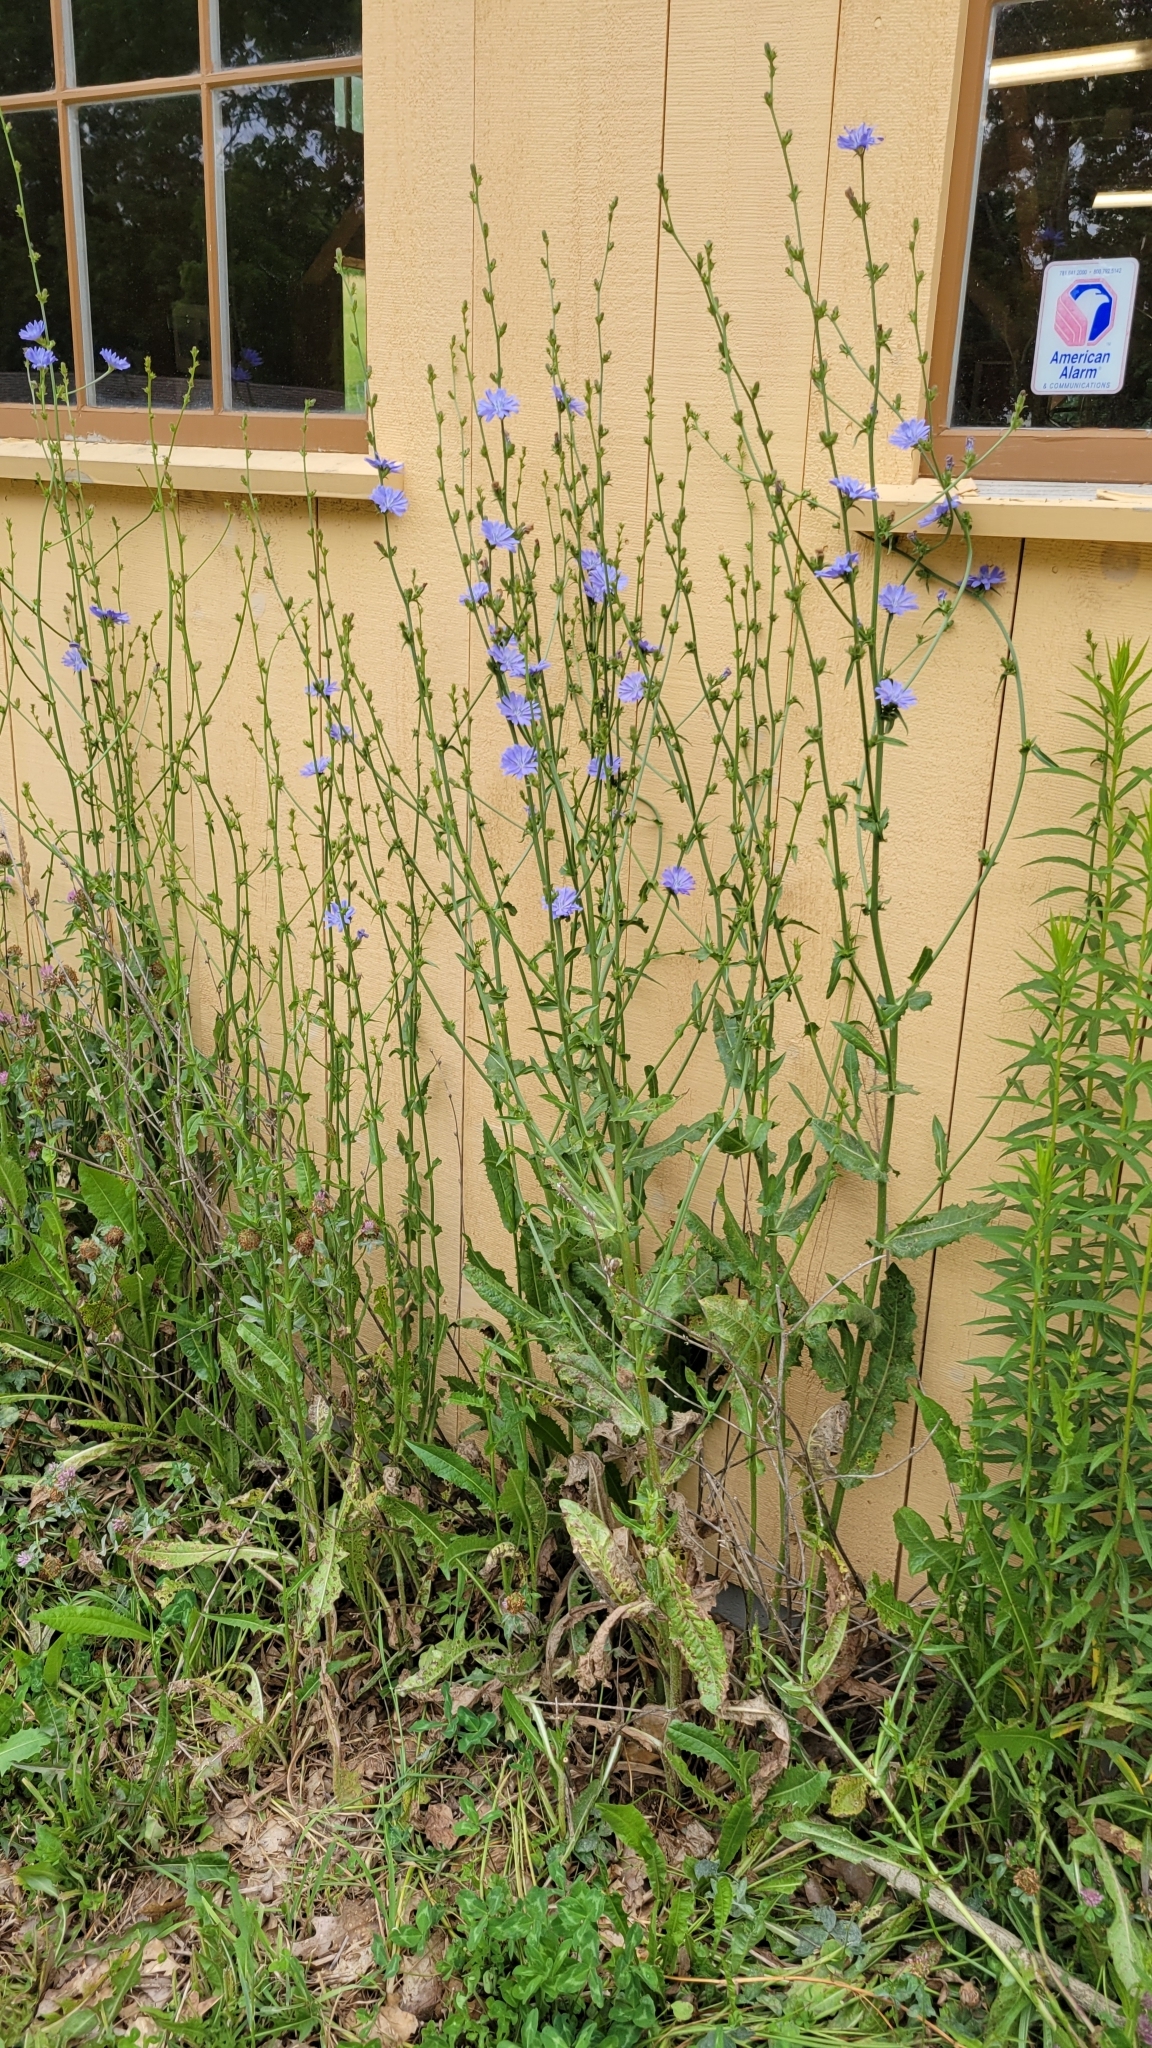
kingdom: Plantae
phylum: Tracheophyta
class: Magnoliopsida
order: Asterales
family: Asteraceae
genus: Cichorium
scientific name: Cichorium intybus
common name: Chicory
